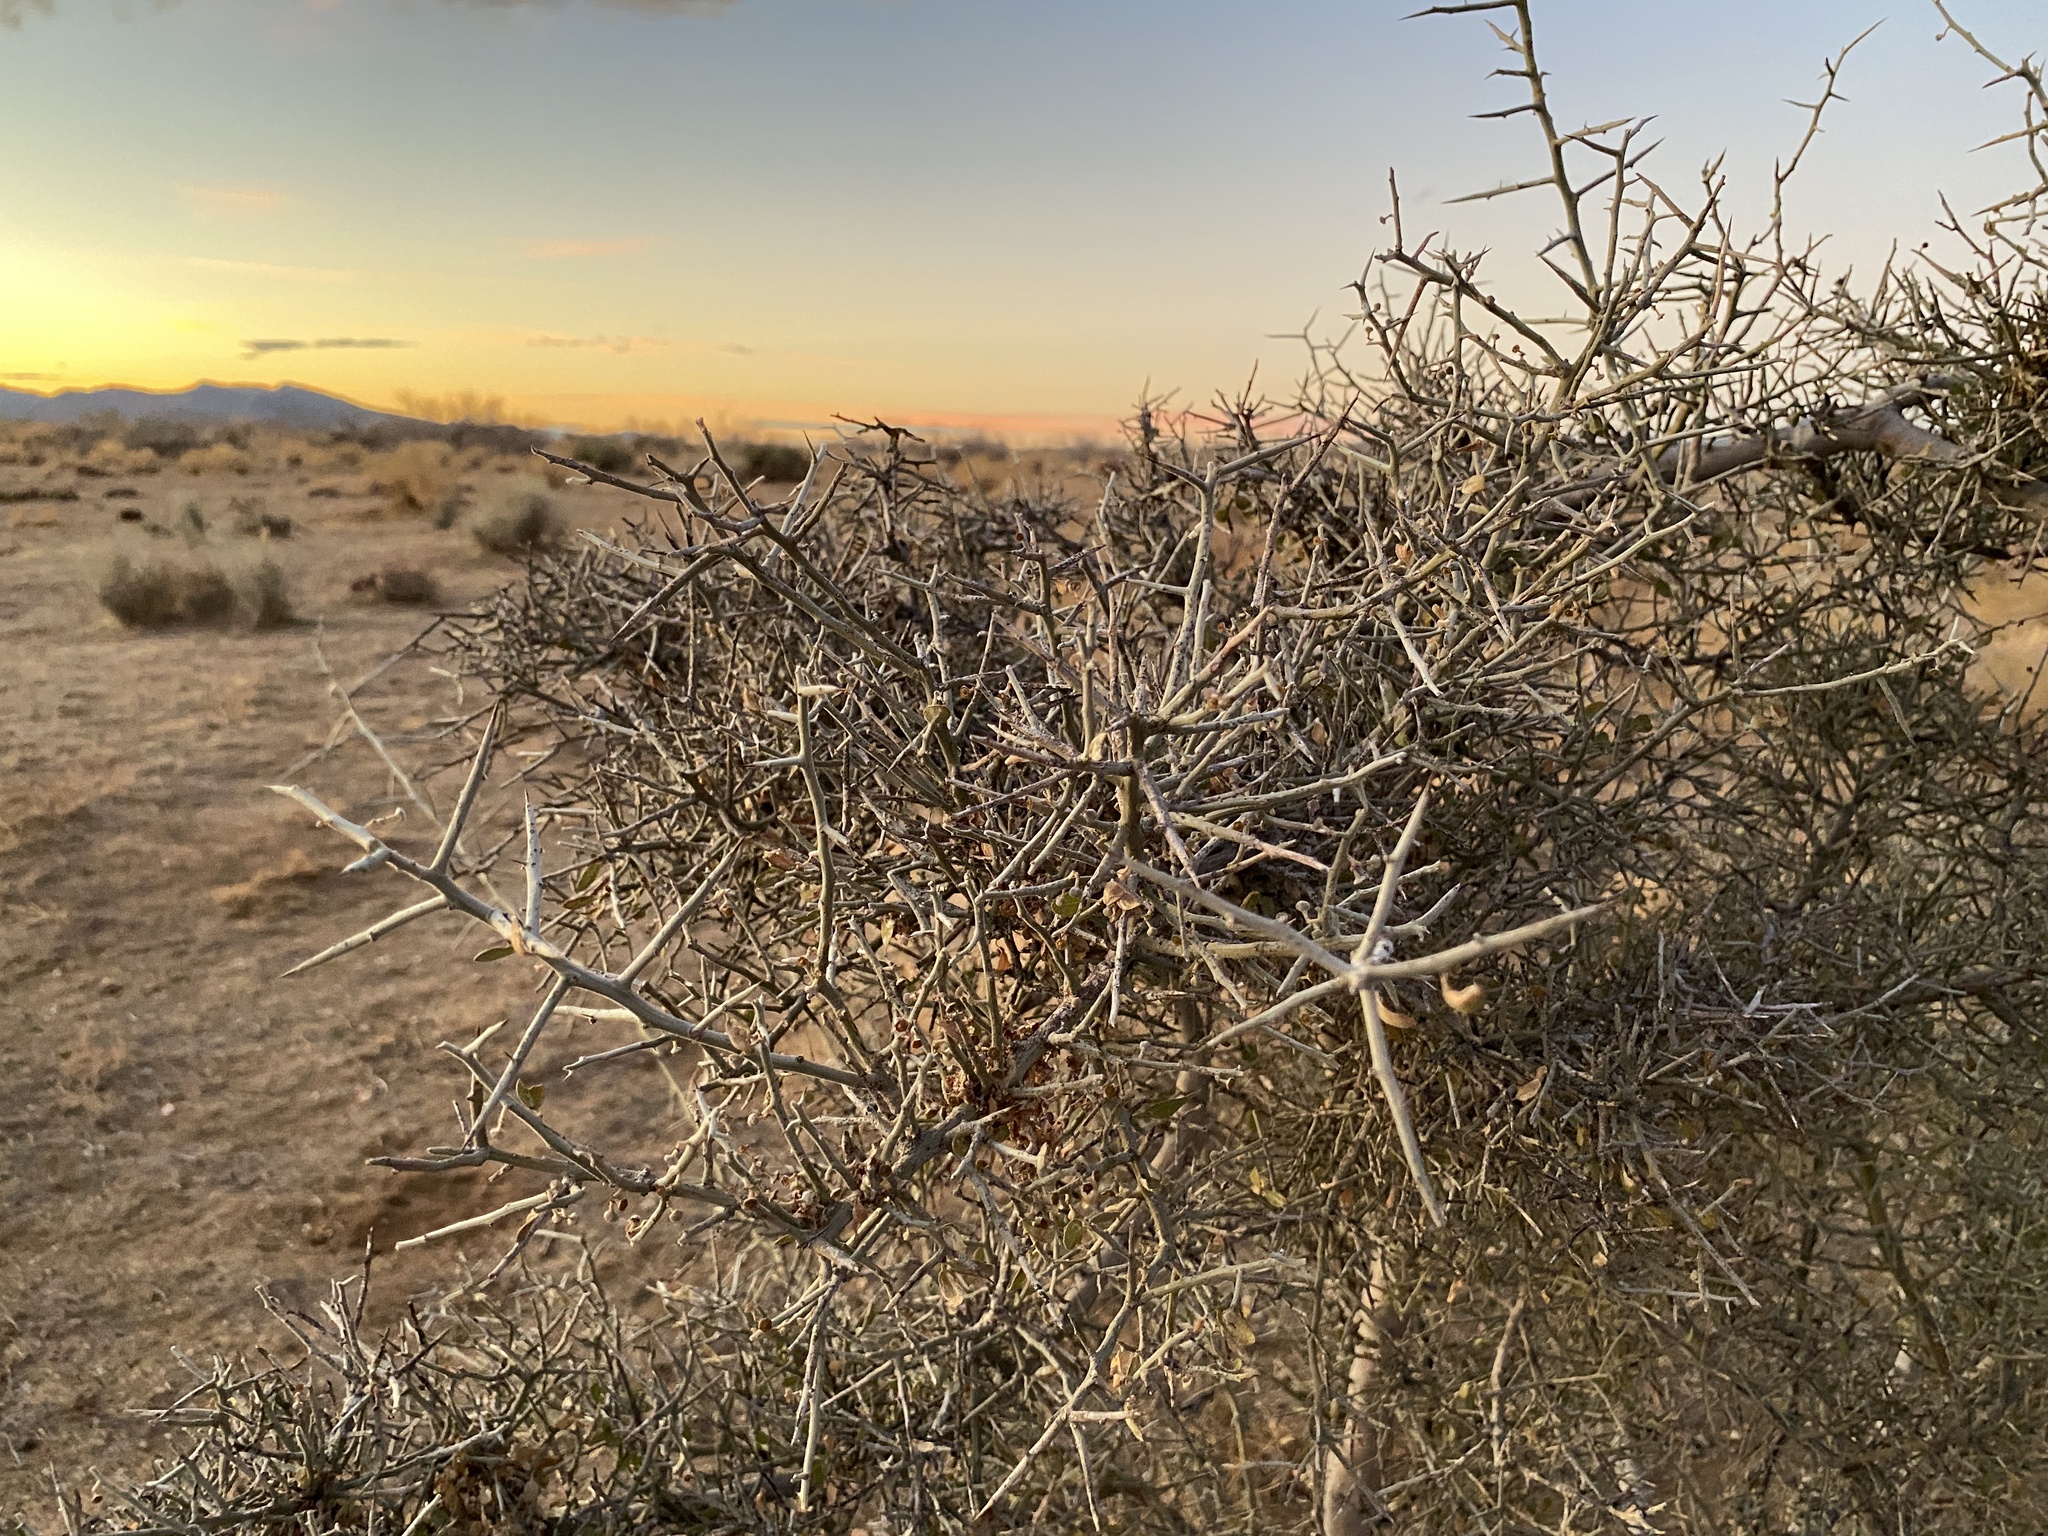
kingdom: Plantae
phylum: Tracheophyta
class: Magnoliopsida
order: Rosales
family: Rhamnaceae
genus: Sarcomphalus
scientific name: Sarcomphalus obtusifolius
